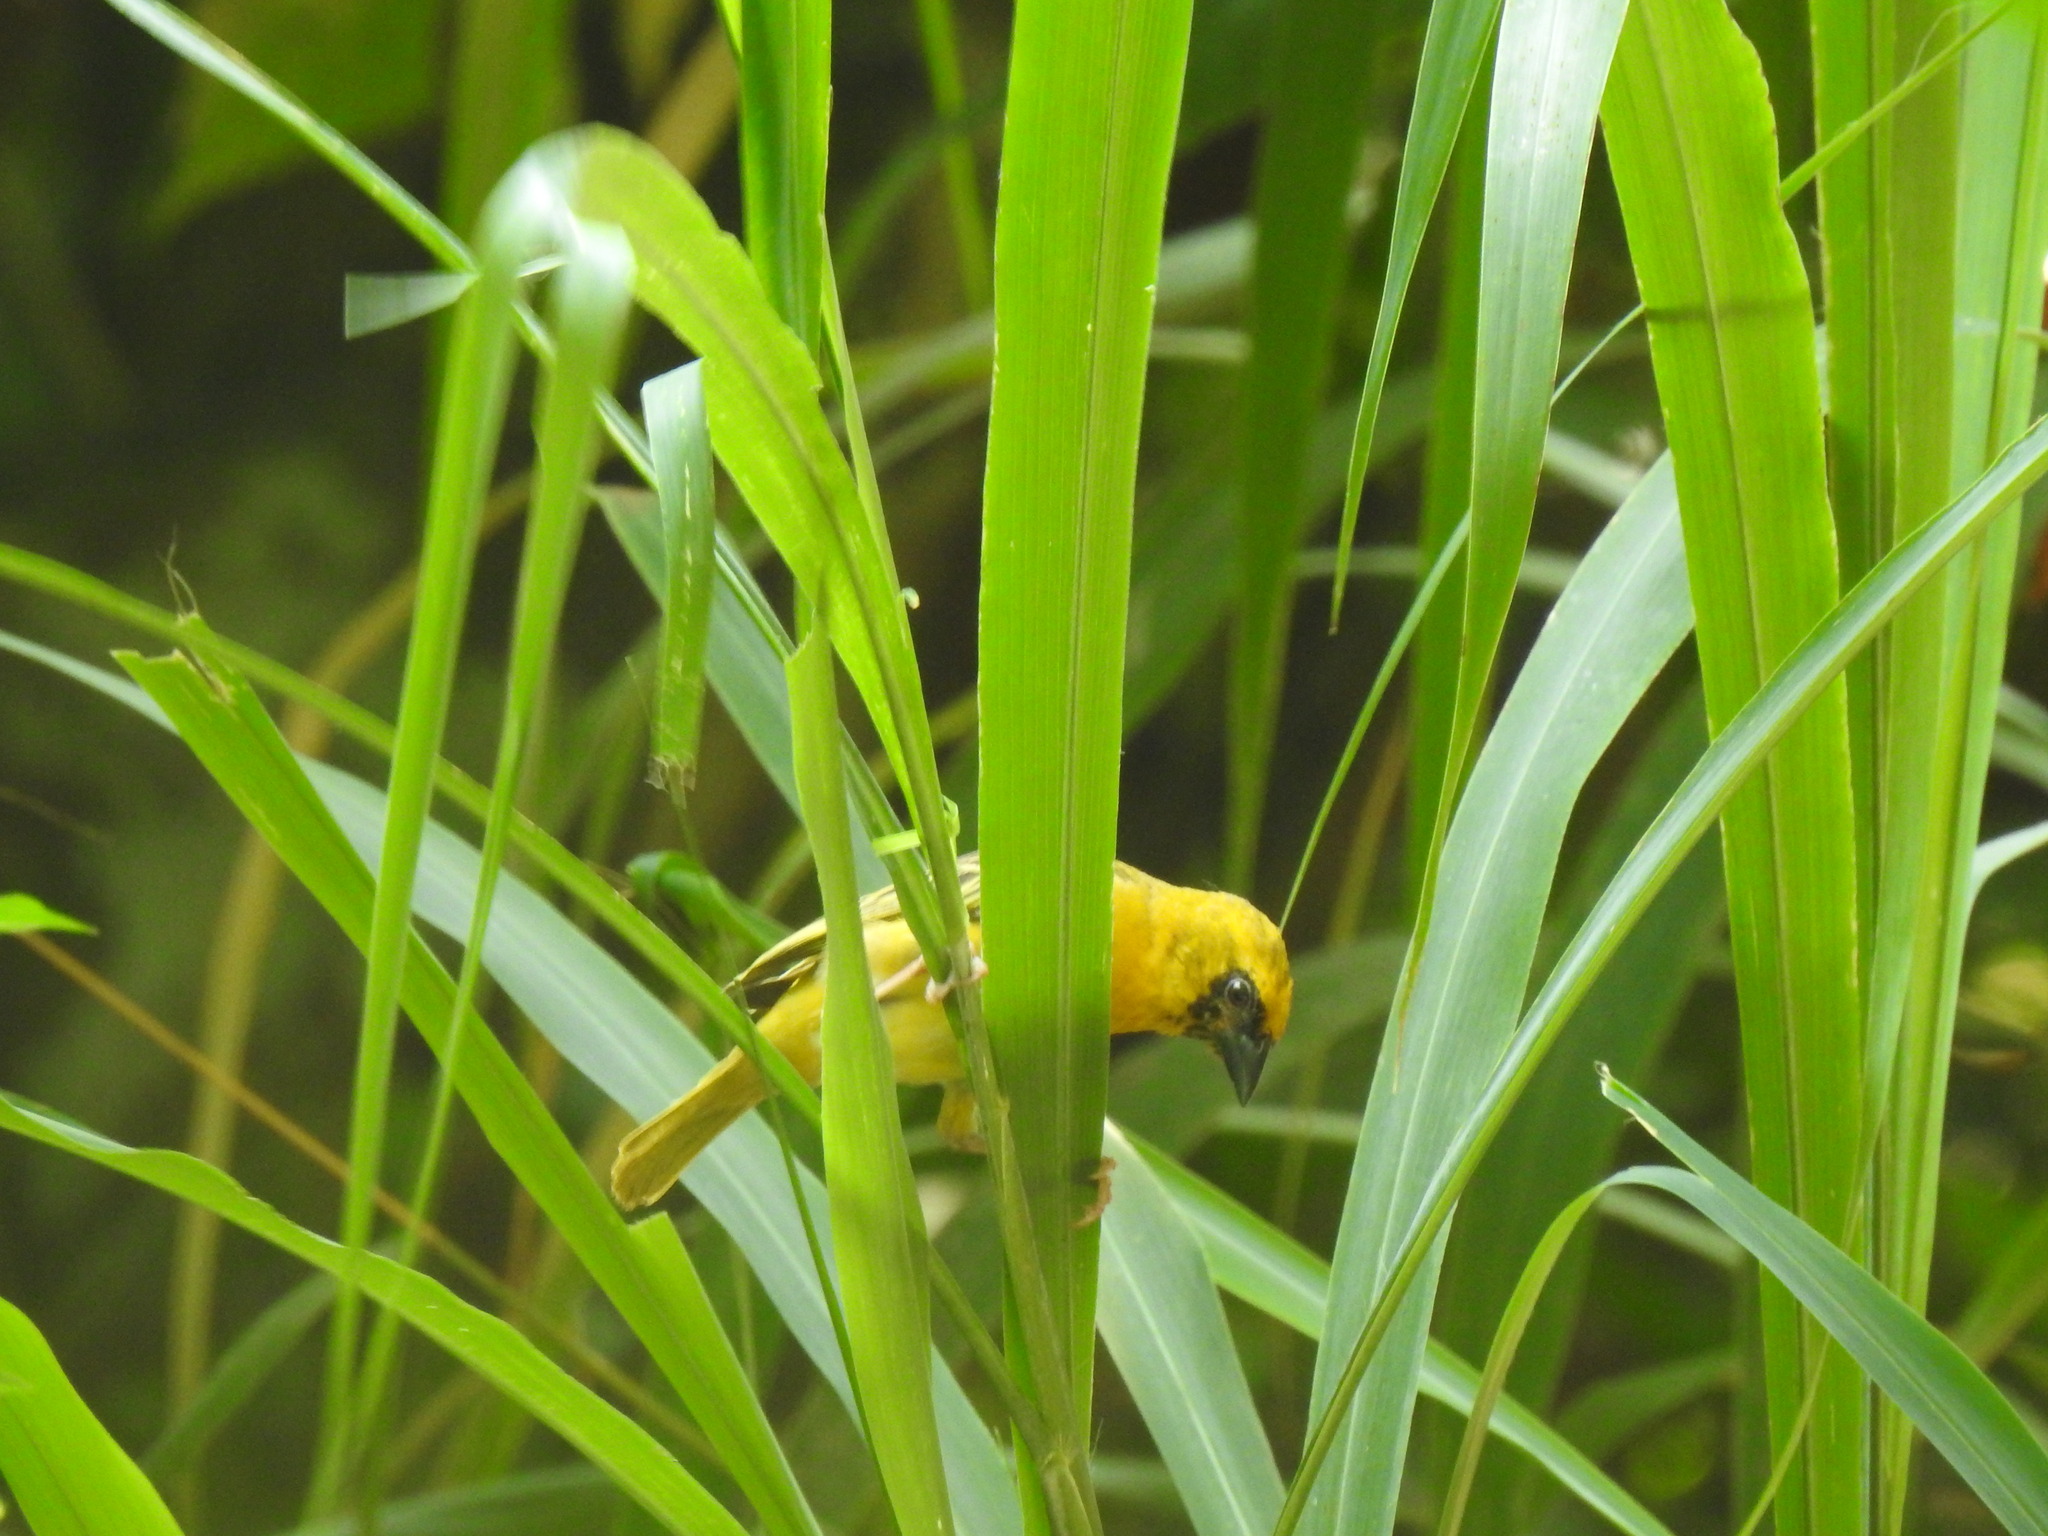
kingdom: Animalia
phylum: Chordata
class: Aves
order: Passeriformes
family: Ploceidae
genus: Ploceus
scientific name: Ploceus velatus
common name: Southern masked weaver
